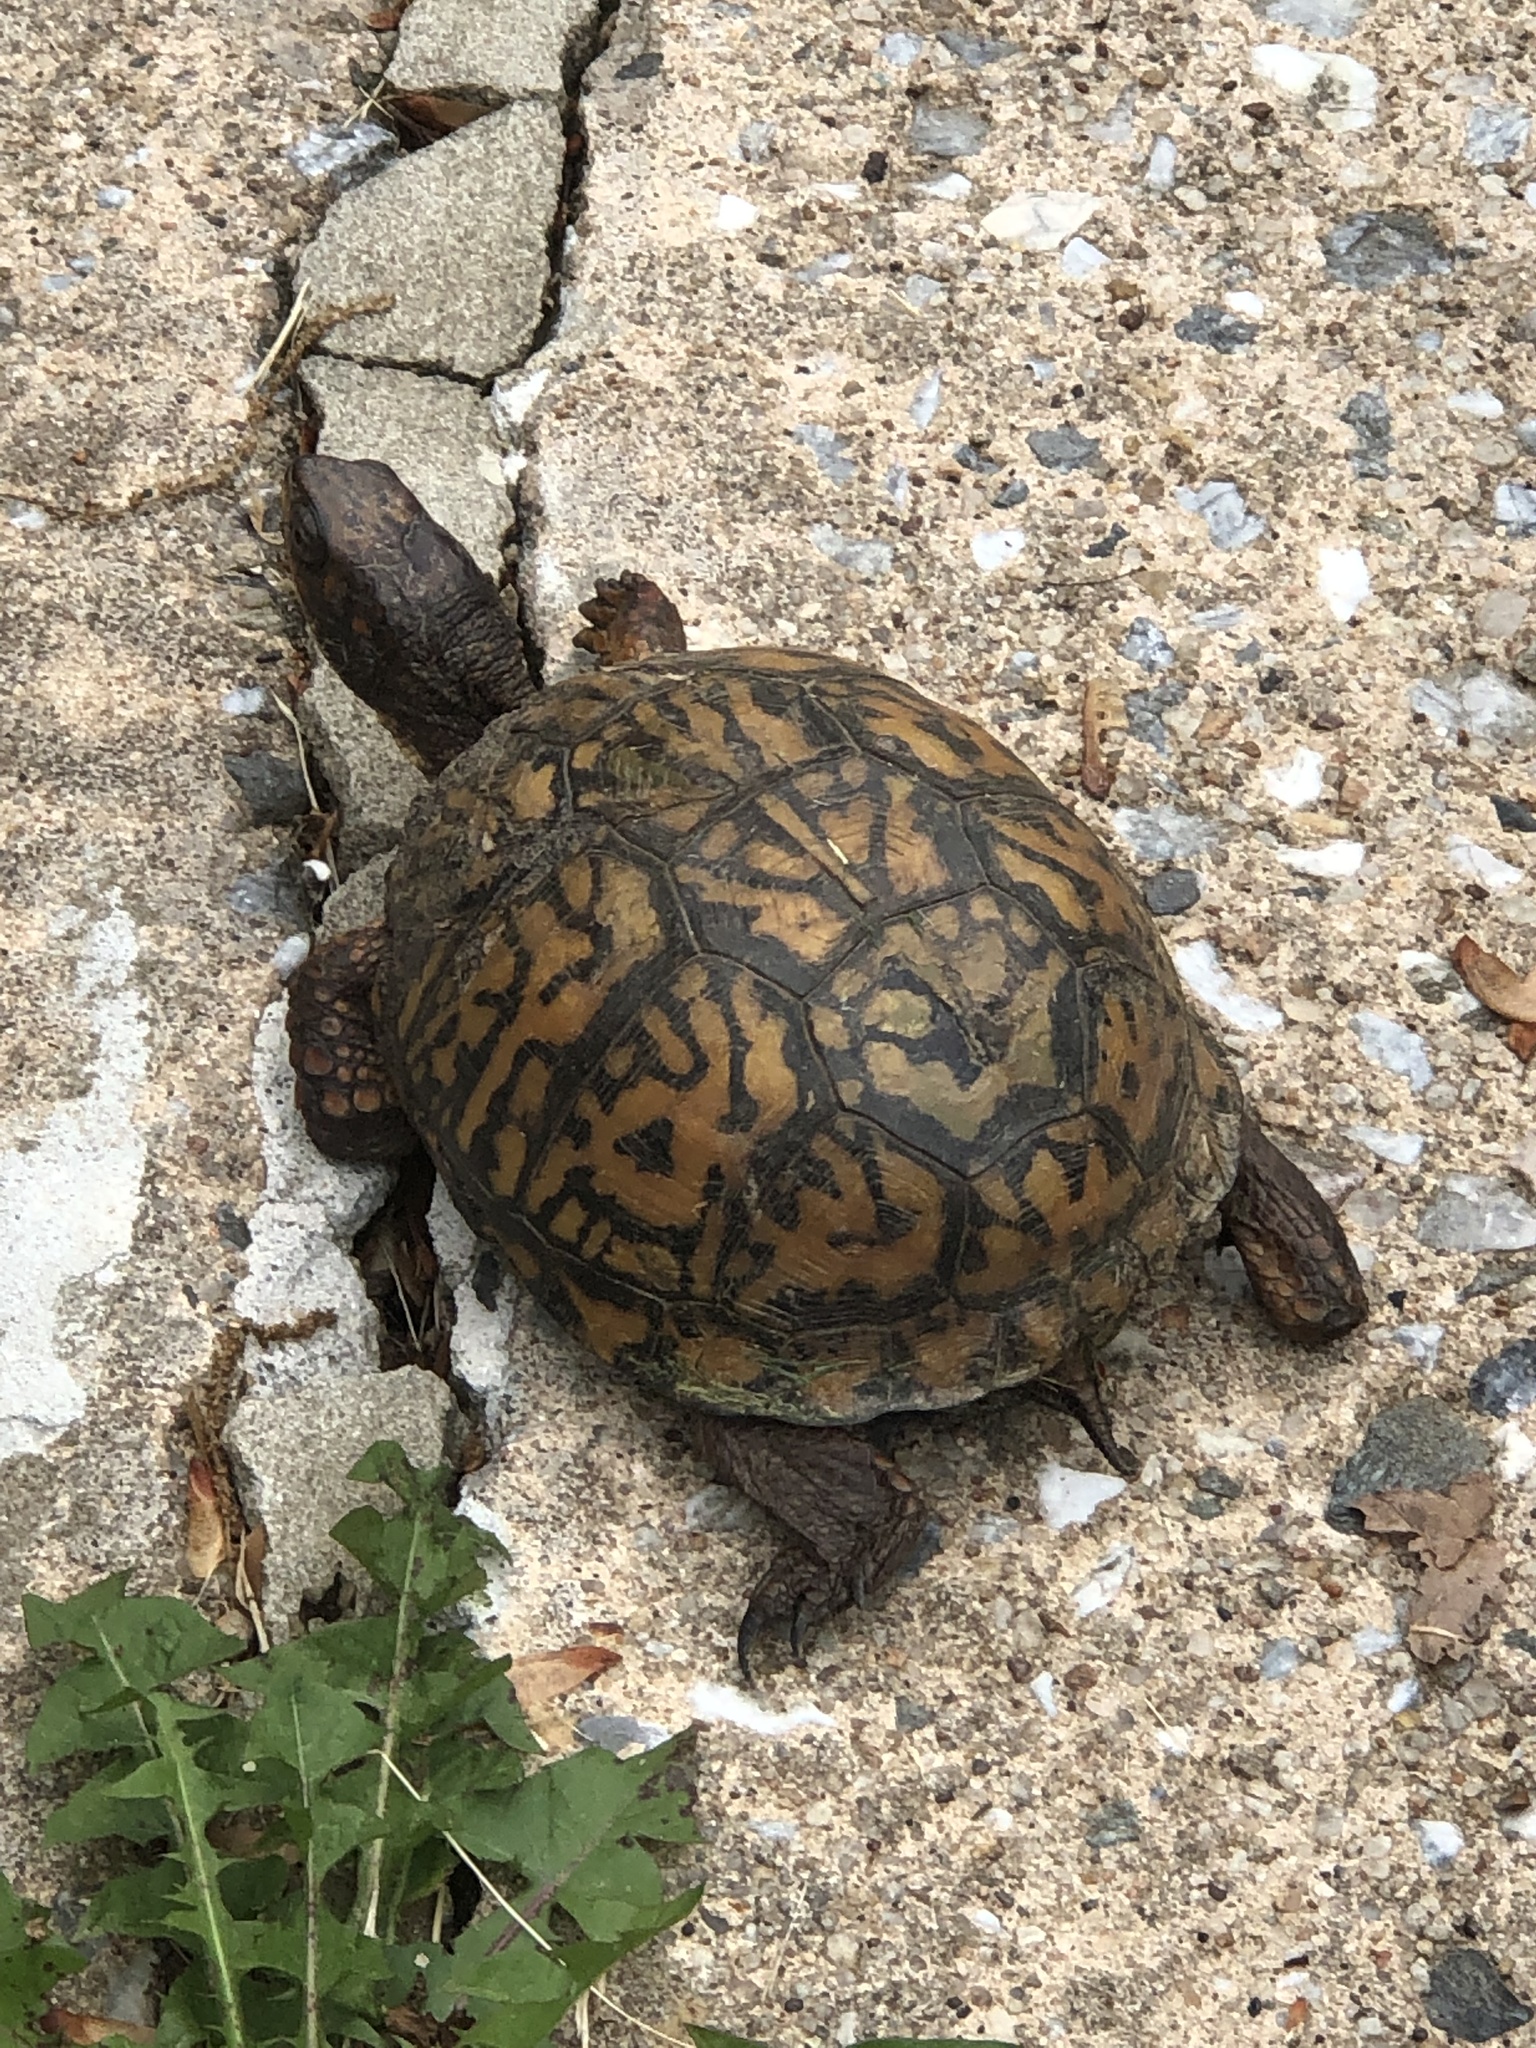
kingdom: Animalia
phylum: Chordata
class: Testudines
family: Emydidae
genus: Terrapene
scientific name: Terrapene carolina
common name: Common box turtle
